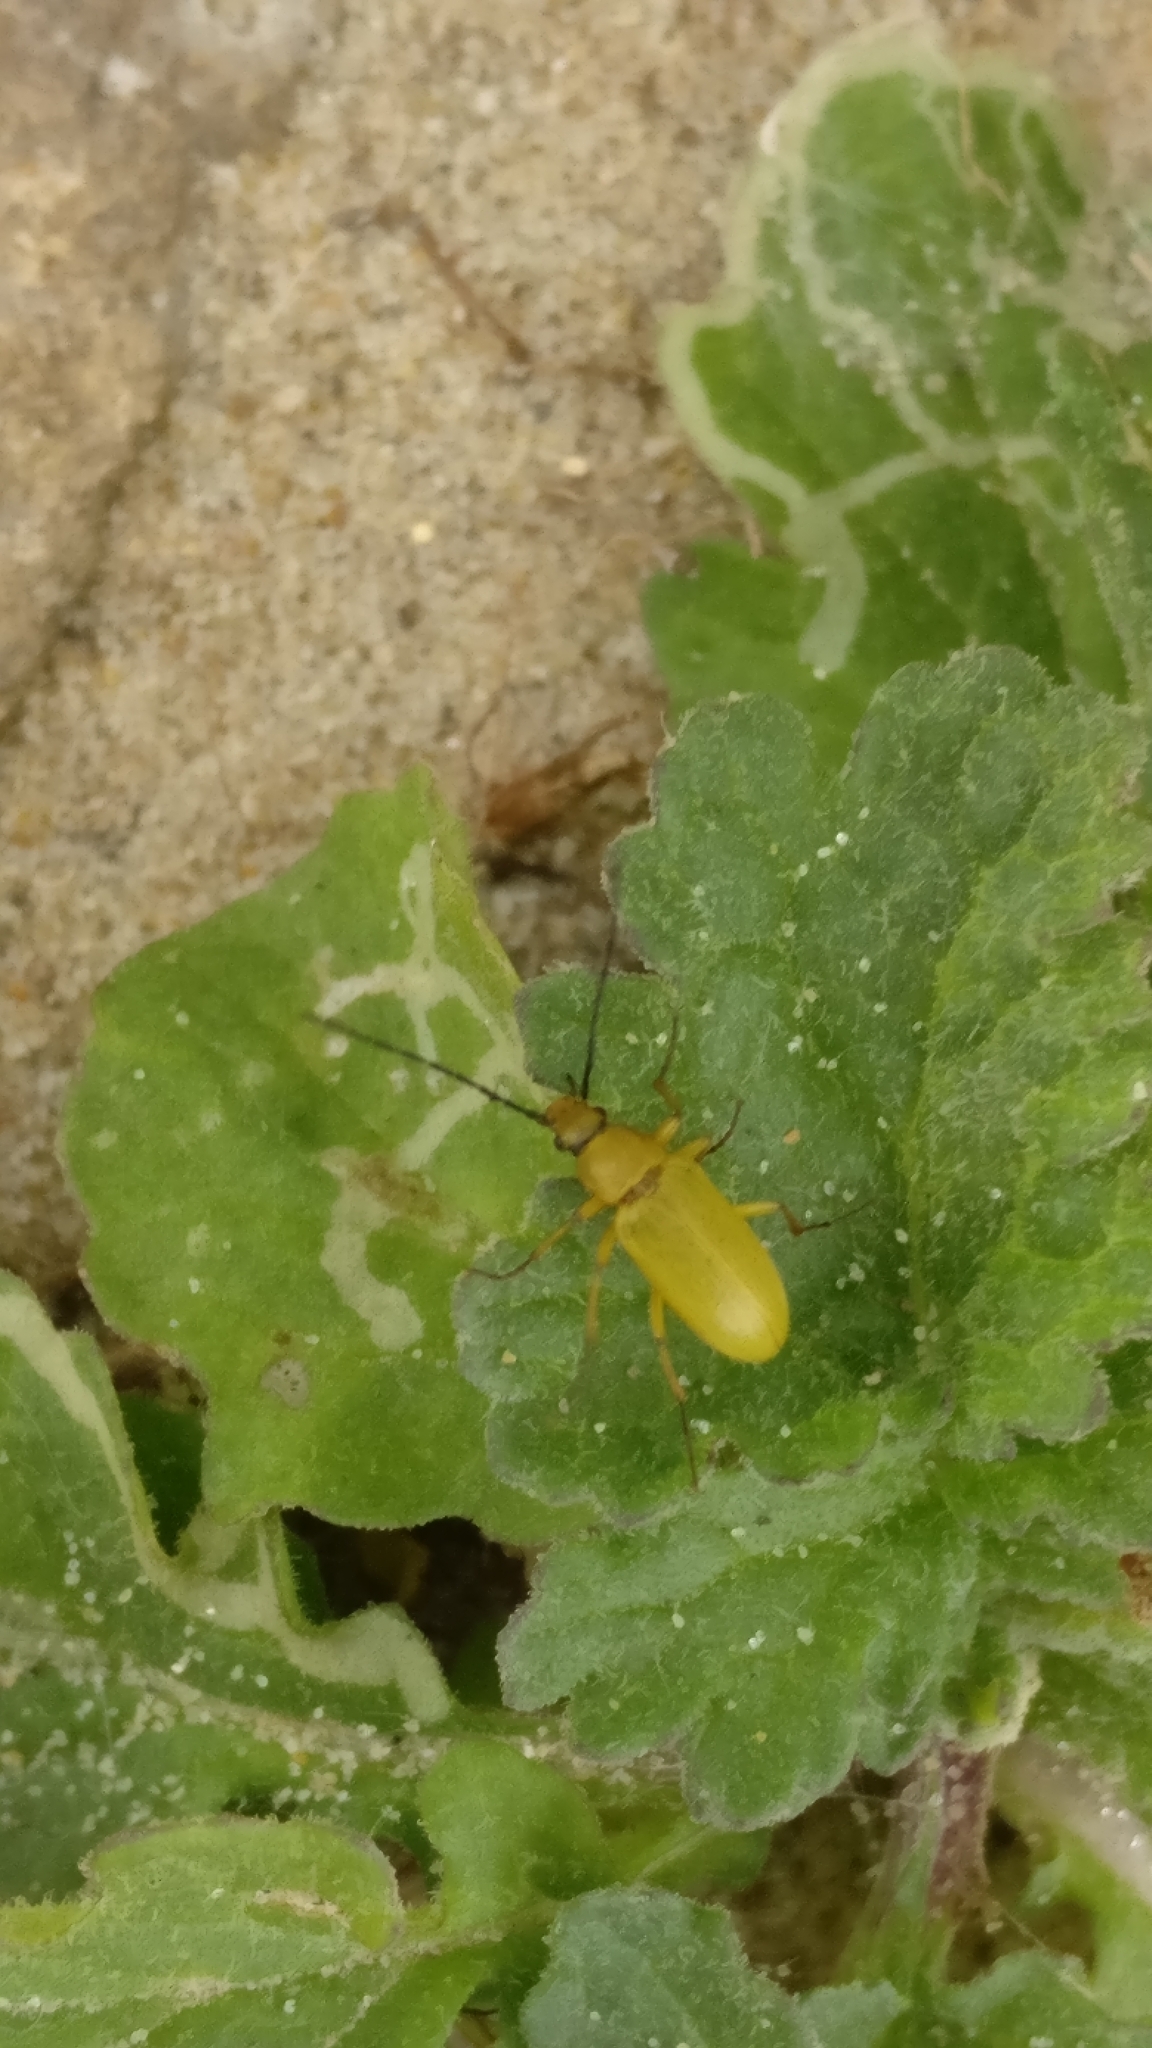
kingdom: Animalia
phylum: Arthropoda
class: Insecta
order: Coleoptera
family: Tenebrionidae
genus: Cteniopus
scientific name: Cteniopus sulphureus
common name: Sulphur beetle
